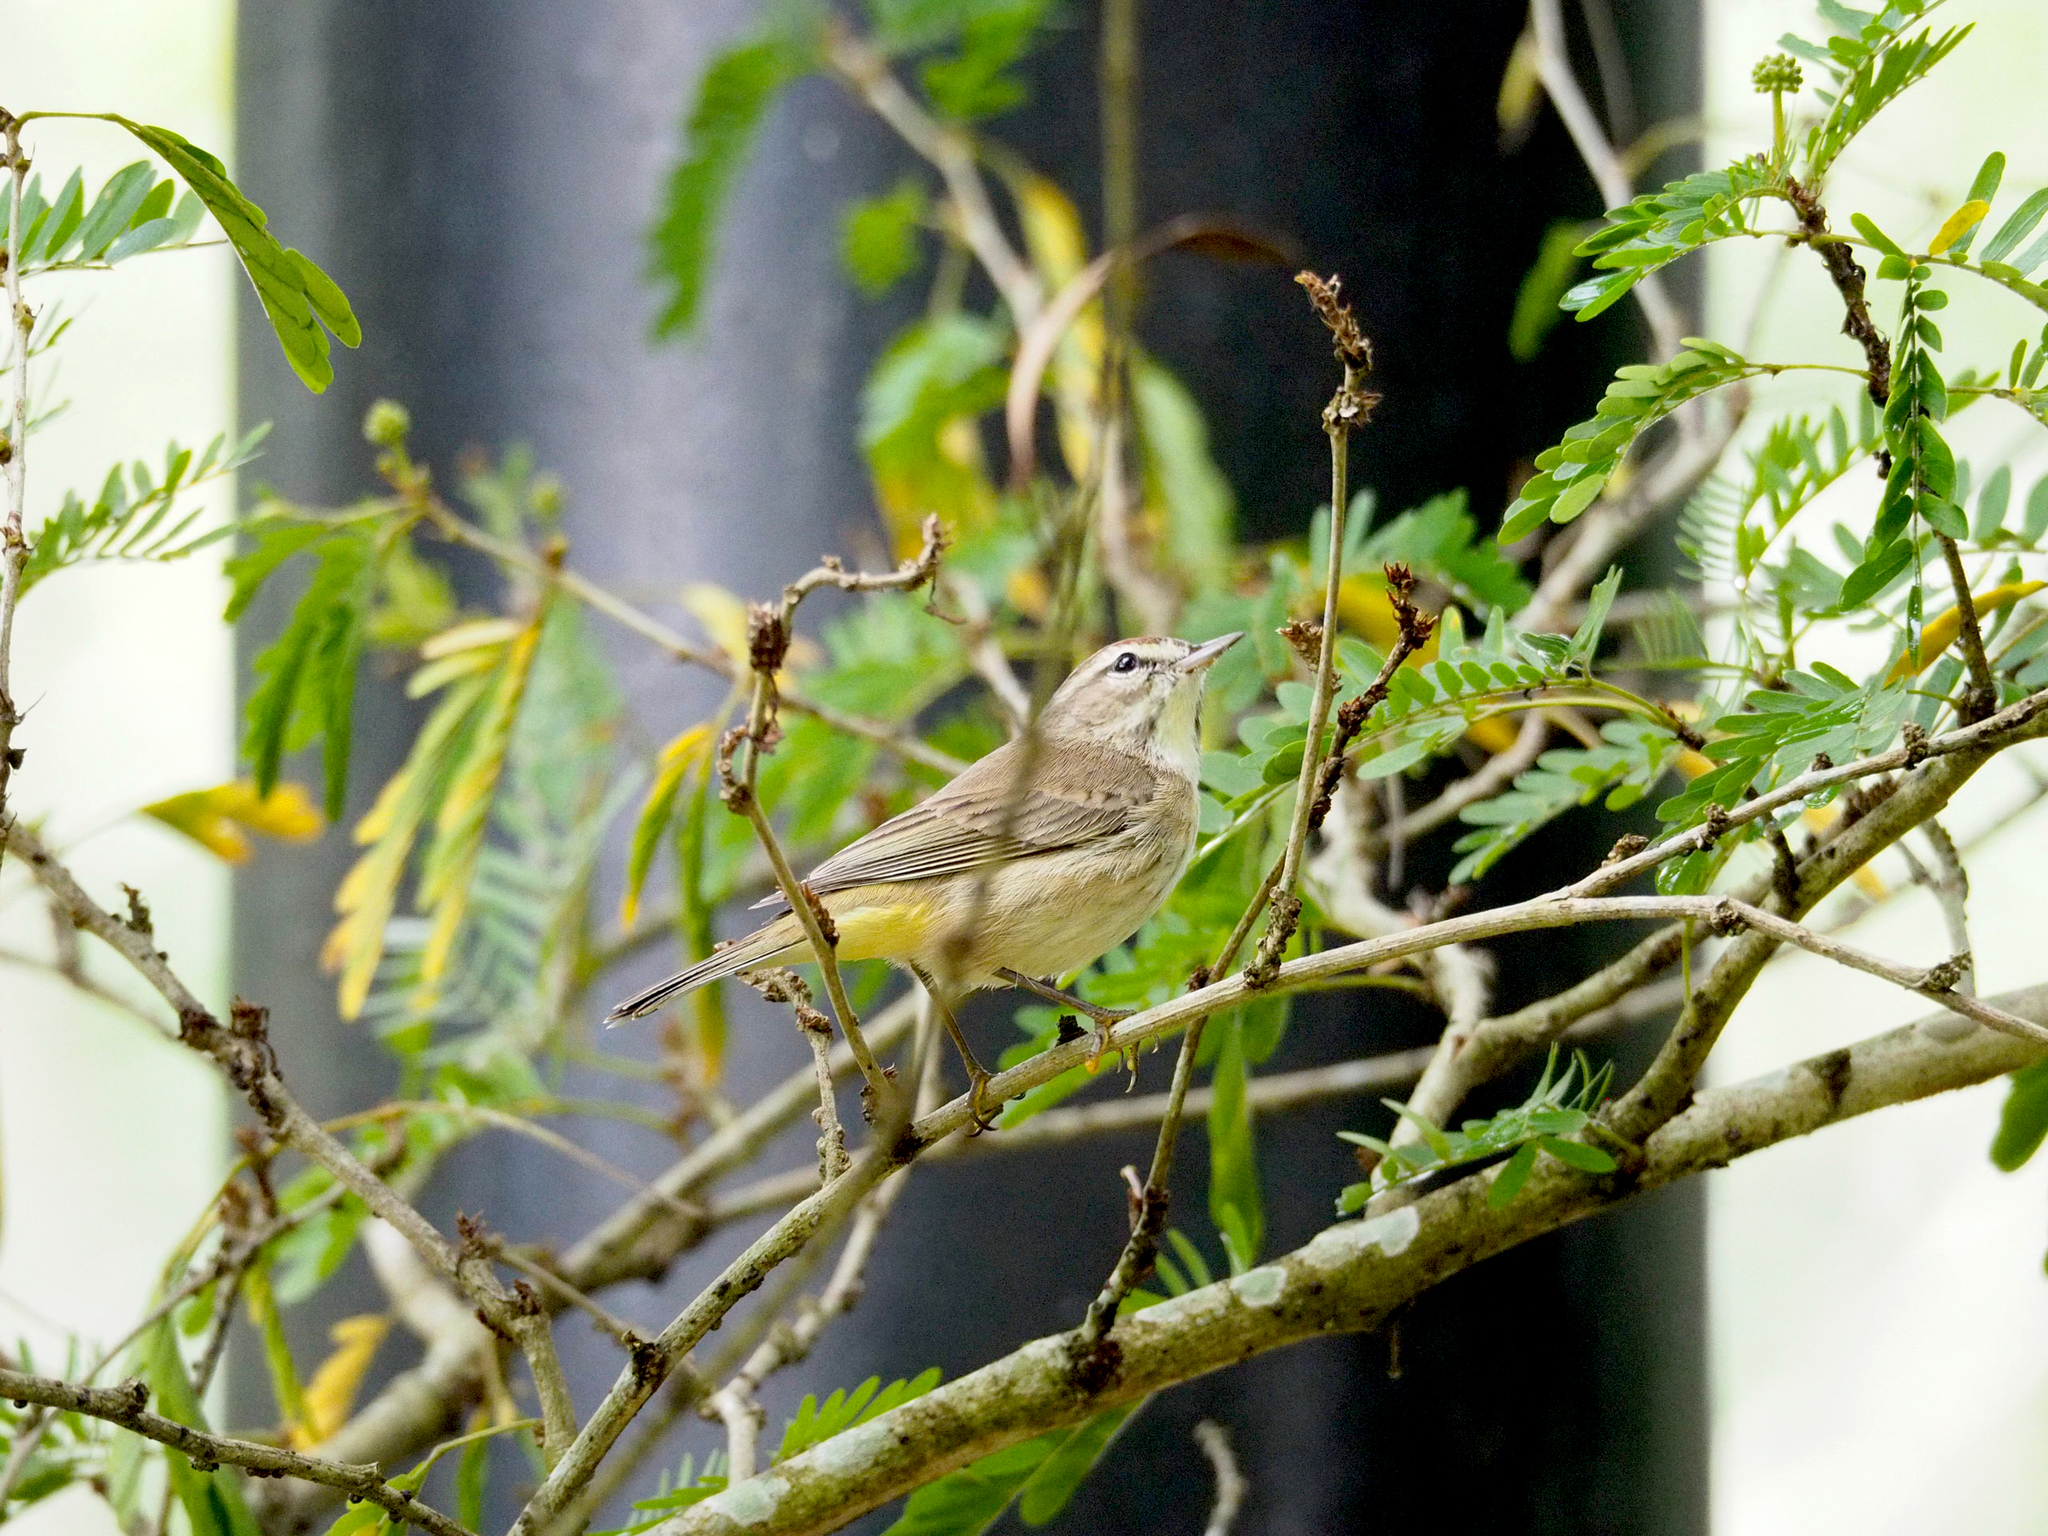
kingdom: Animalia
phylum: Chordata
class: Aves
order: Passeriformes
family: Parulidae
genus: Setophaga
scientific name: Setophaga palmarum
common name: Palm warbler
